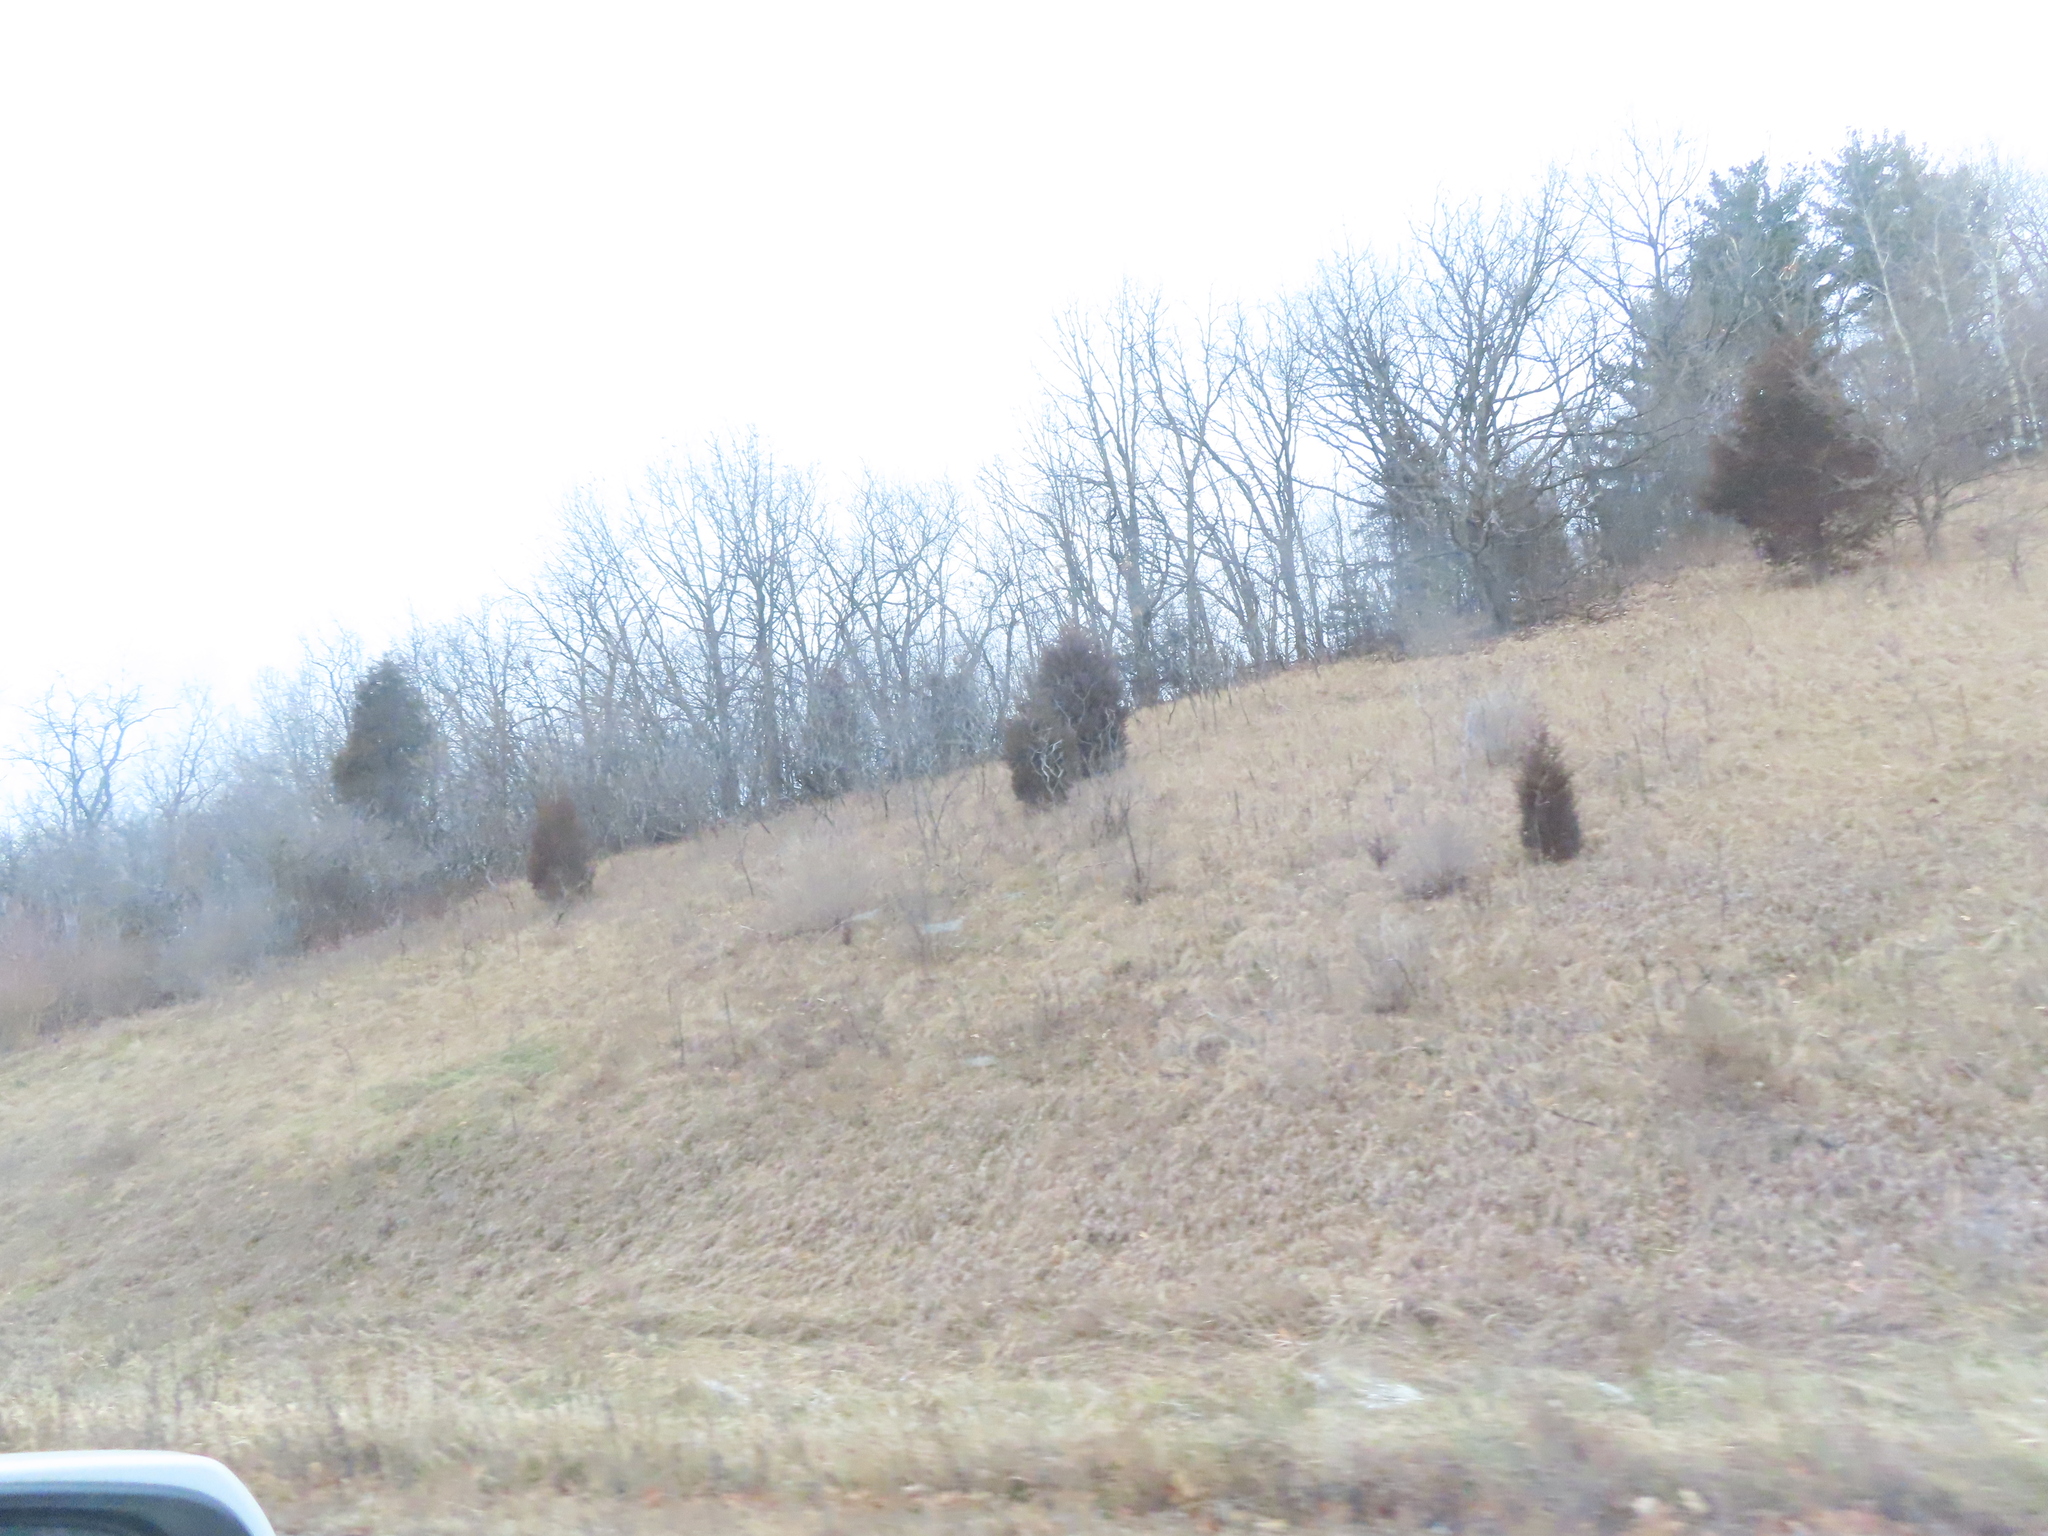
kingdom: Plantae
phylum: Tracheophyta
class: Pinopsida
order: Pinales
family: Cupressaceae
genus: Juniperus
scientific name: Juniperus virginiana
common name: Red juniper
